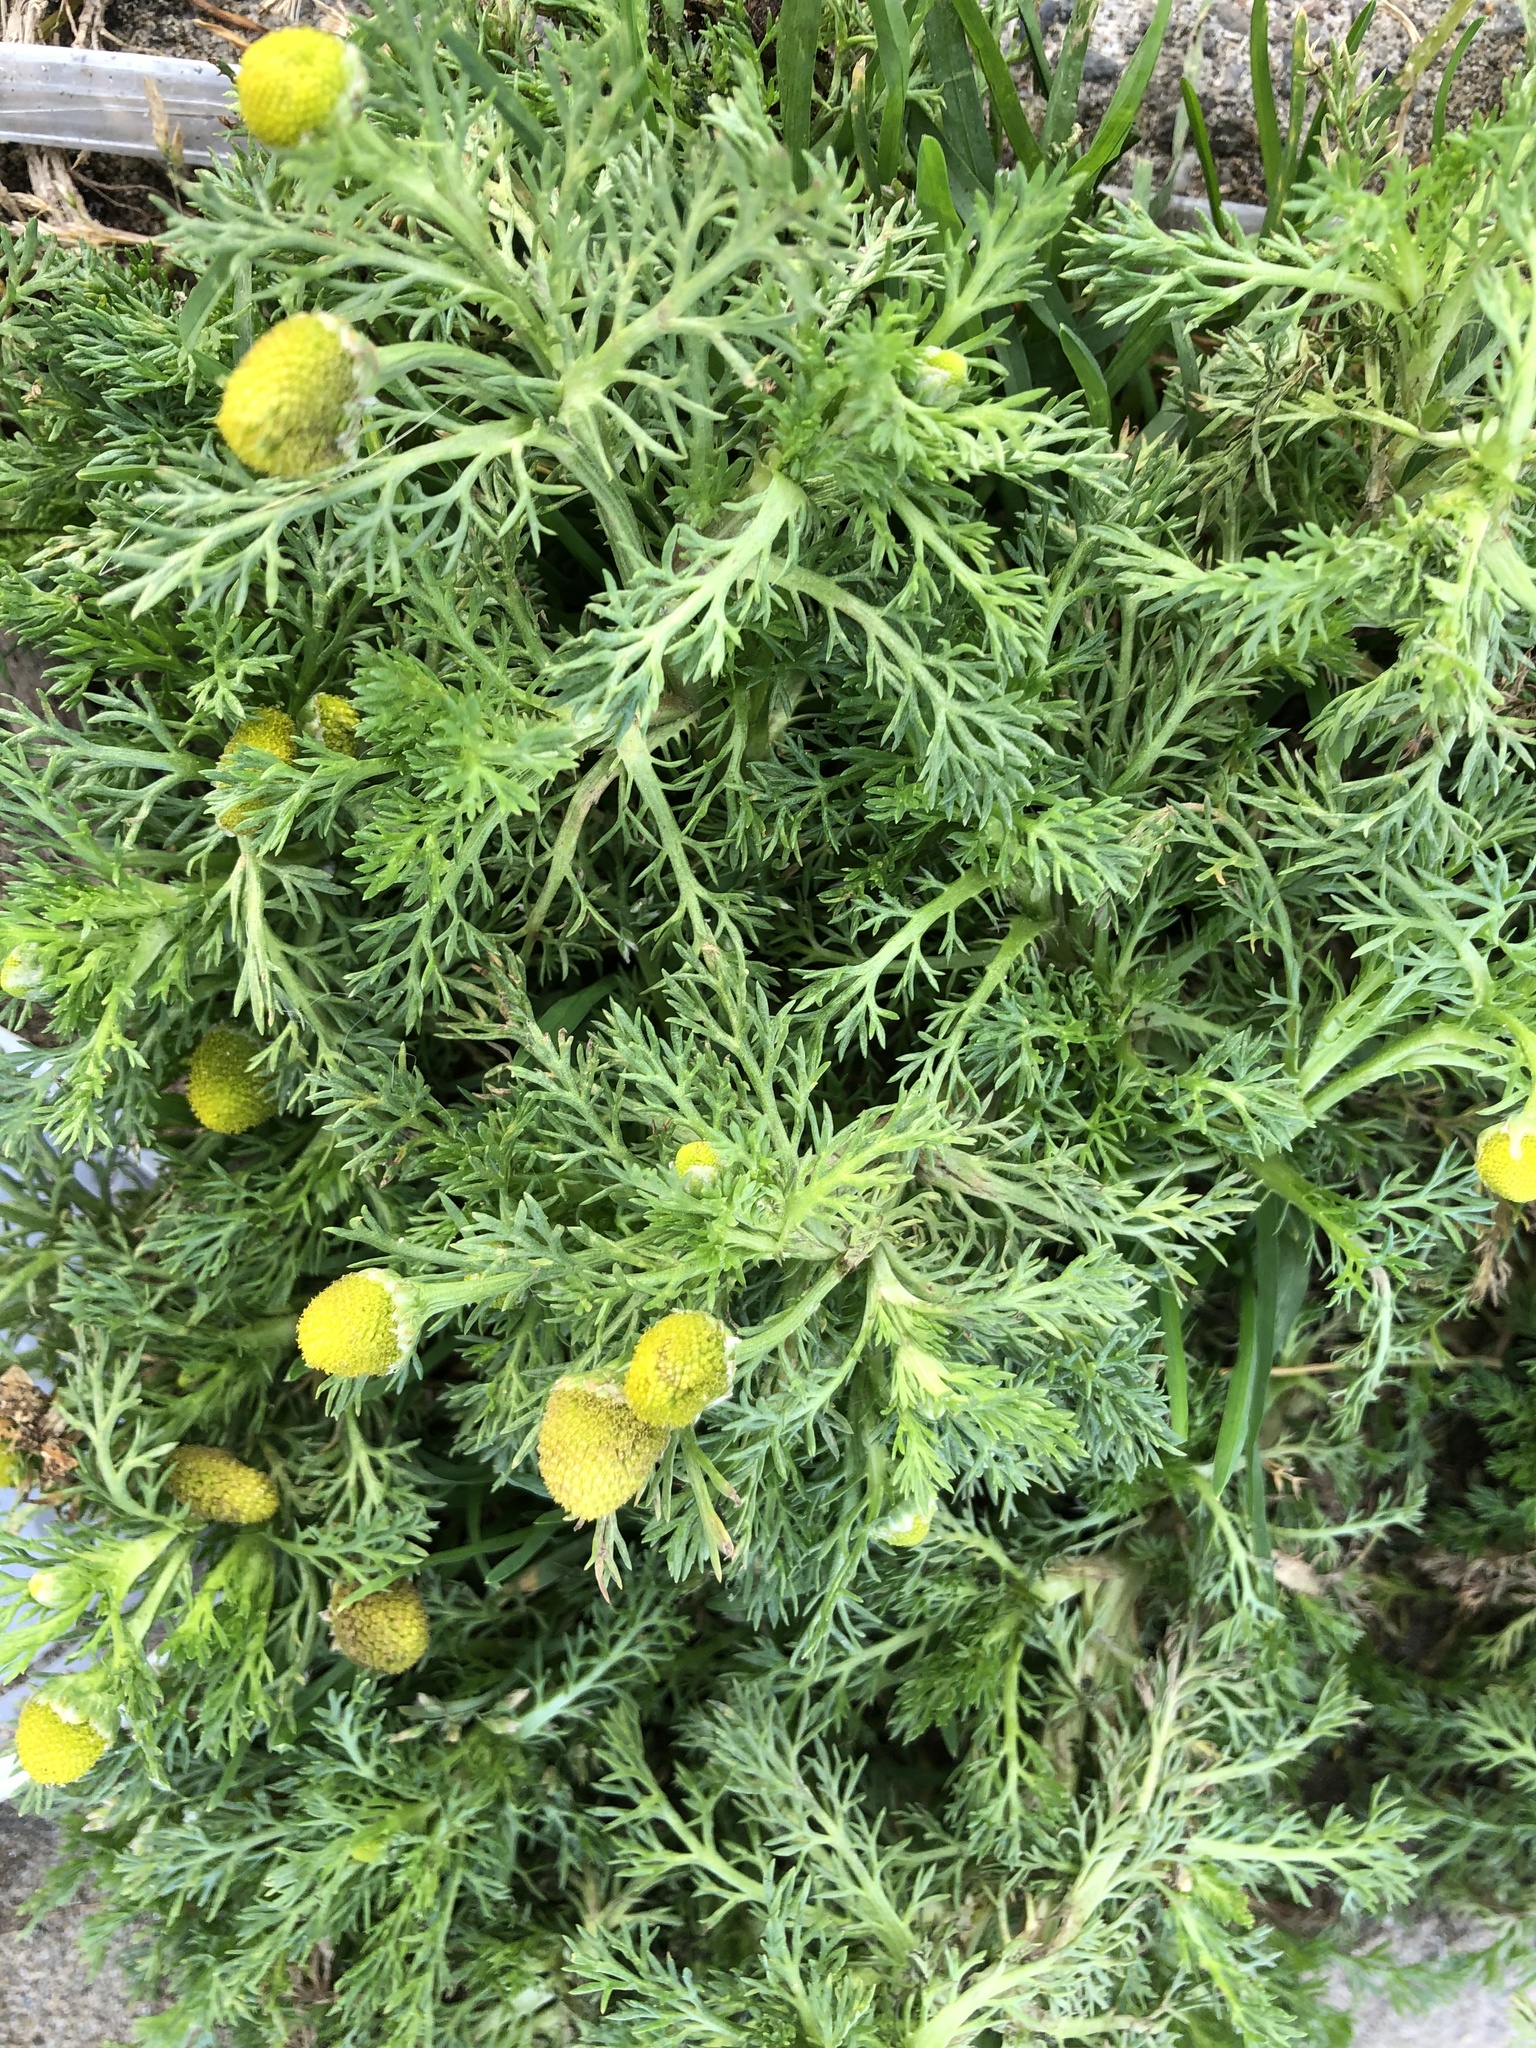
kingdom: Plantae
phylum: Tracheophyta
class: Magnoliopsida
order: Asterales
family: Asteraceae
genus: Matricaria
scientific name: Matricaria discoidea
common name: Disc mayweed
